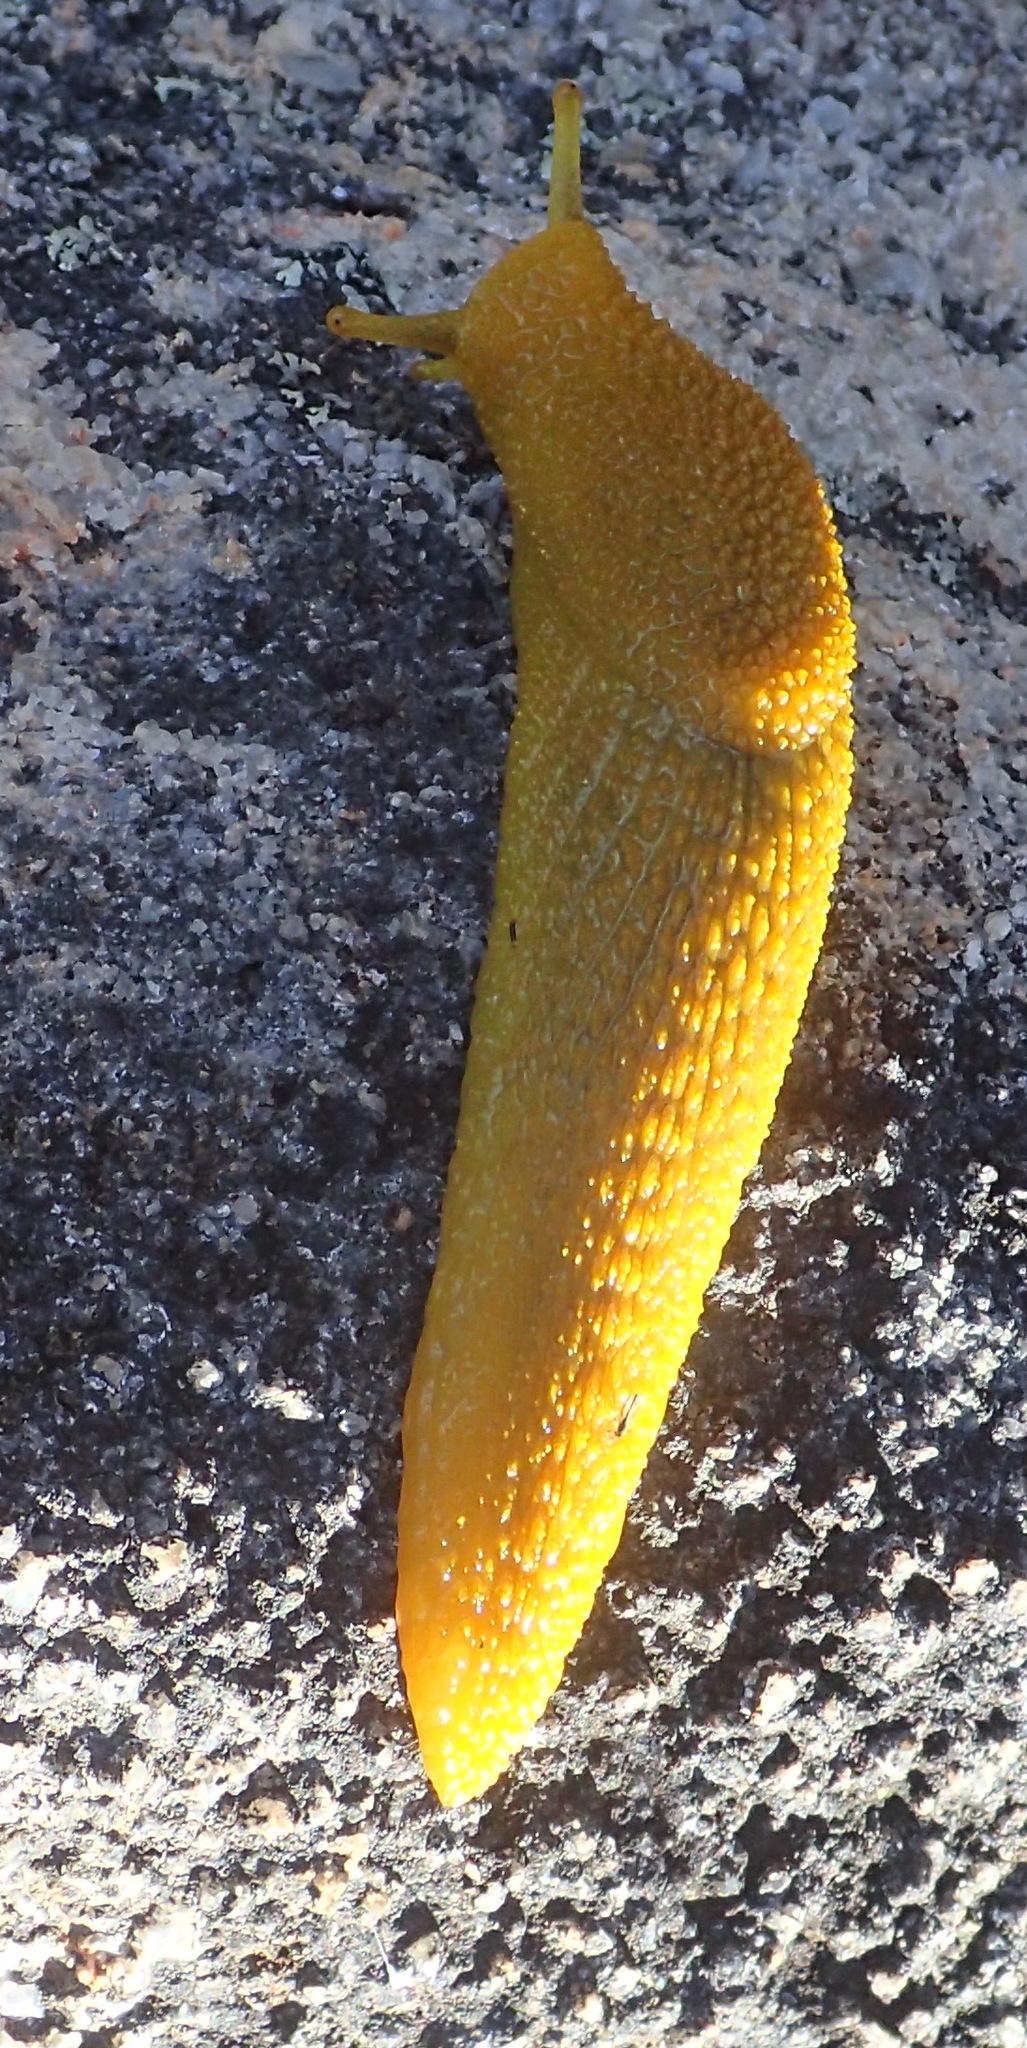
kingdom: Animalia
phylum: Mollusca
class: Gastropoda
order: Stylommatophora
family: Oopeltidae
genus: Oopelta
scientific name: Oopelta granulosa
